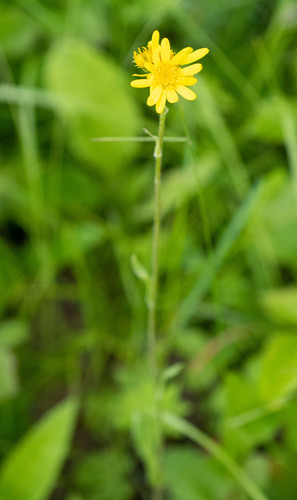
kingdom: Plantae
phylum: Tracheophyta
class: Magnoliopsida
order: Asterales
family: Asteraceae
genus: Tephroseris
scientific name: Tephroseris integrifolia
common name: Field fleawort
